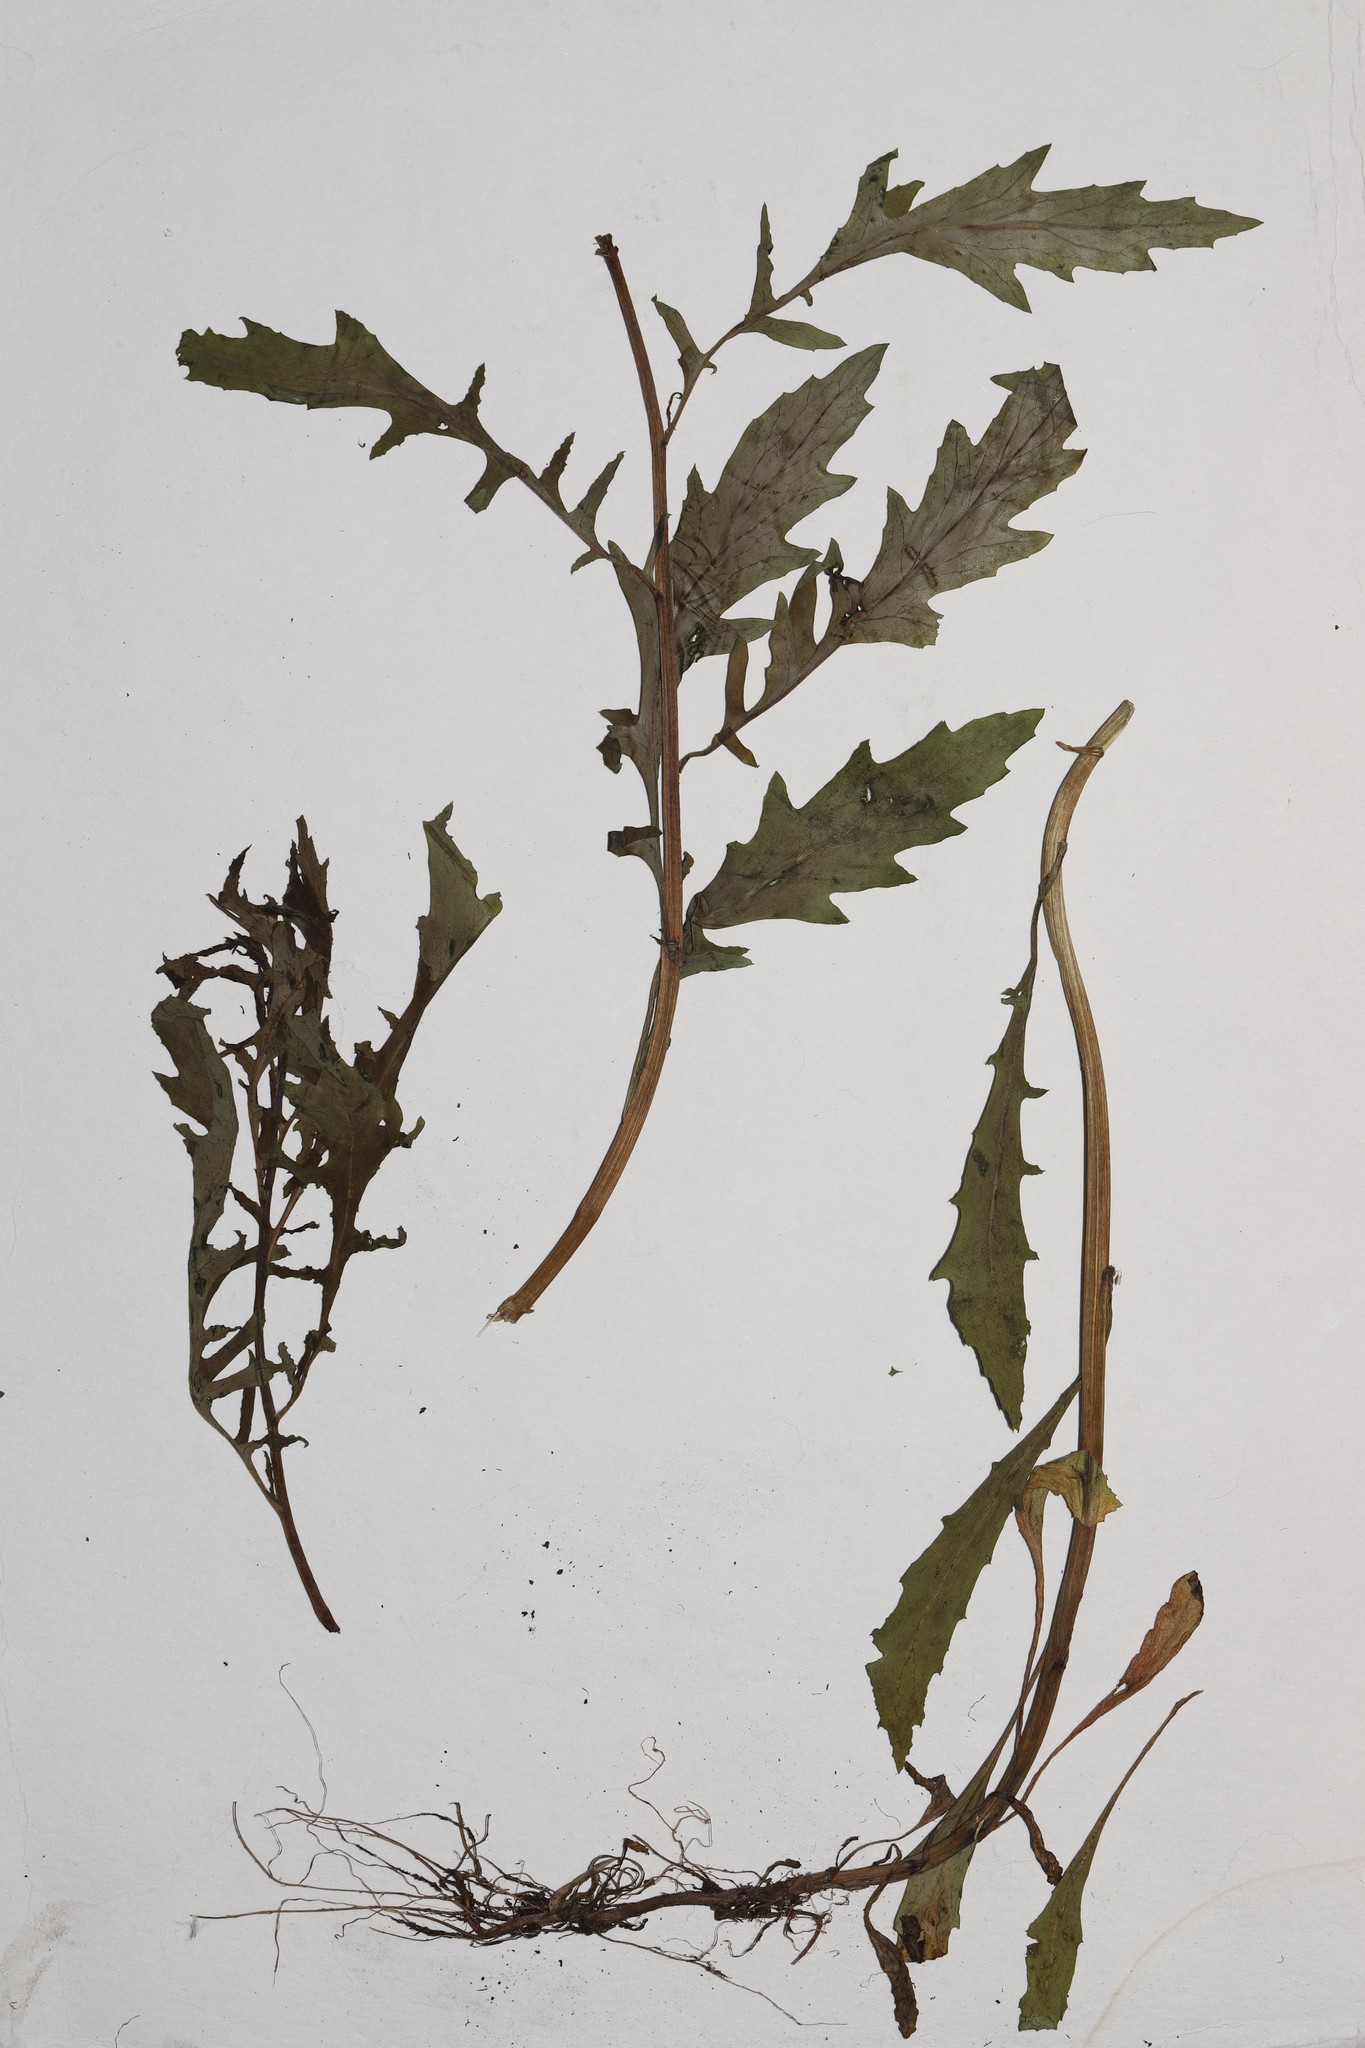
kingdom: Plantae
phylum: Tracheophyta
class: Magnoliopsida
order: Asterales
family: Asteraceae
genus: Senecio
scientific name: Senecio eremophilus
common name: Desert ragwort
